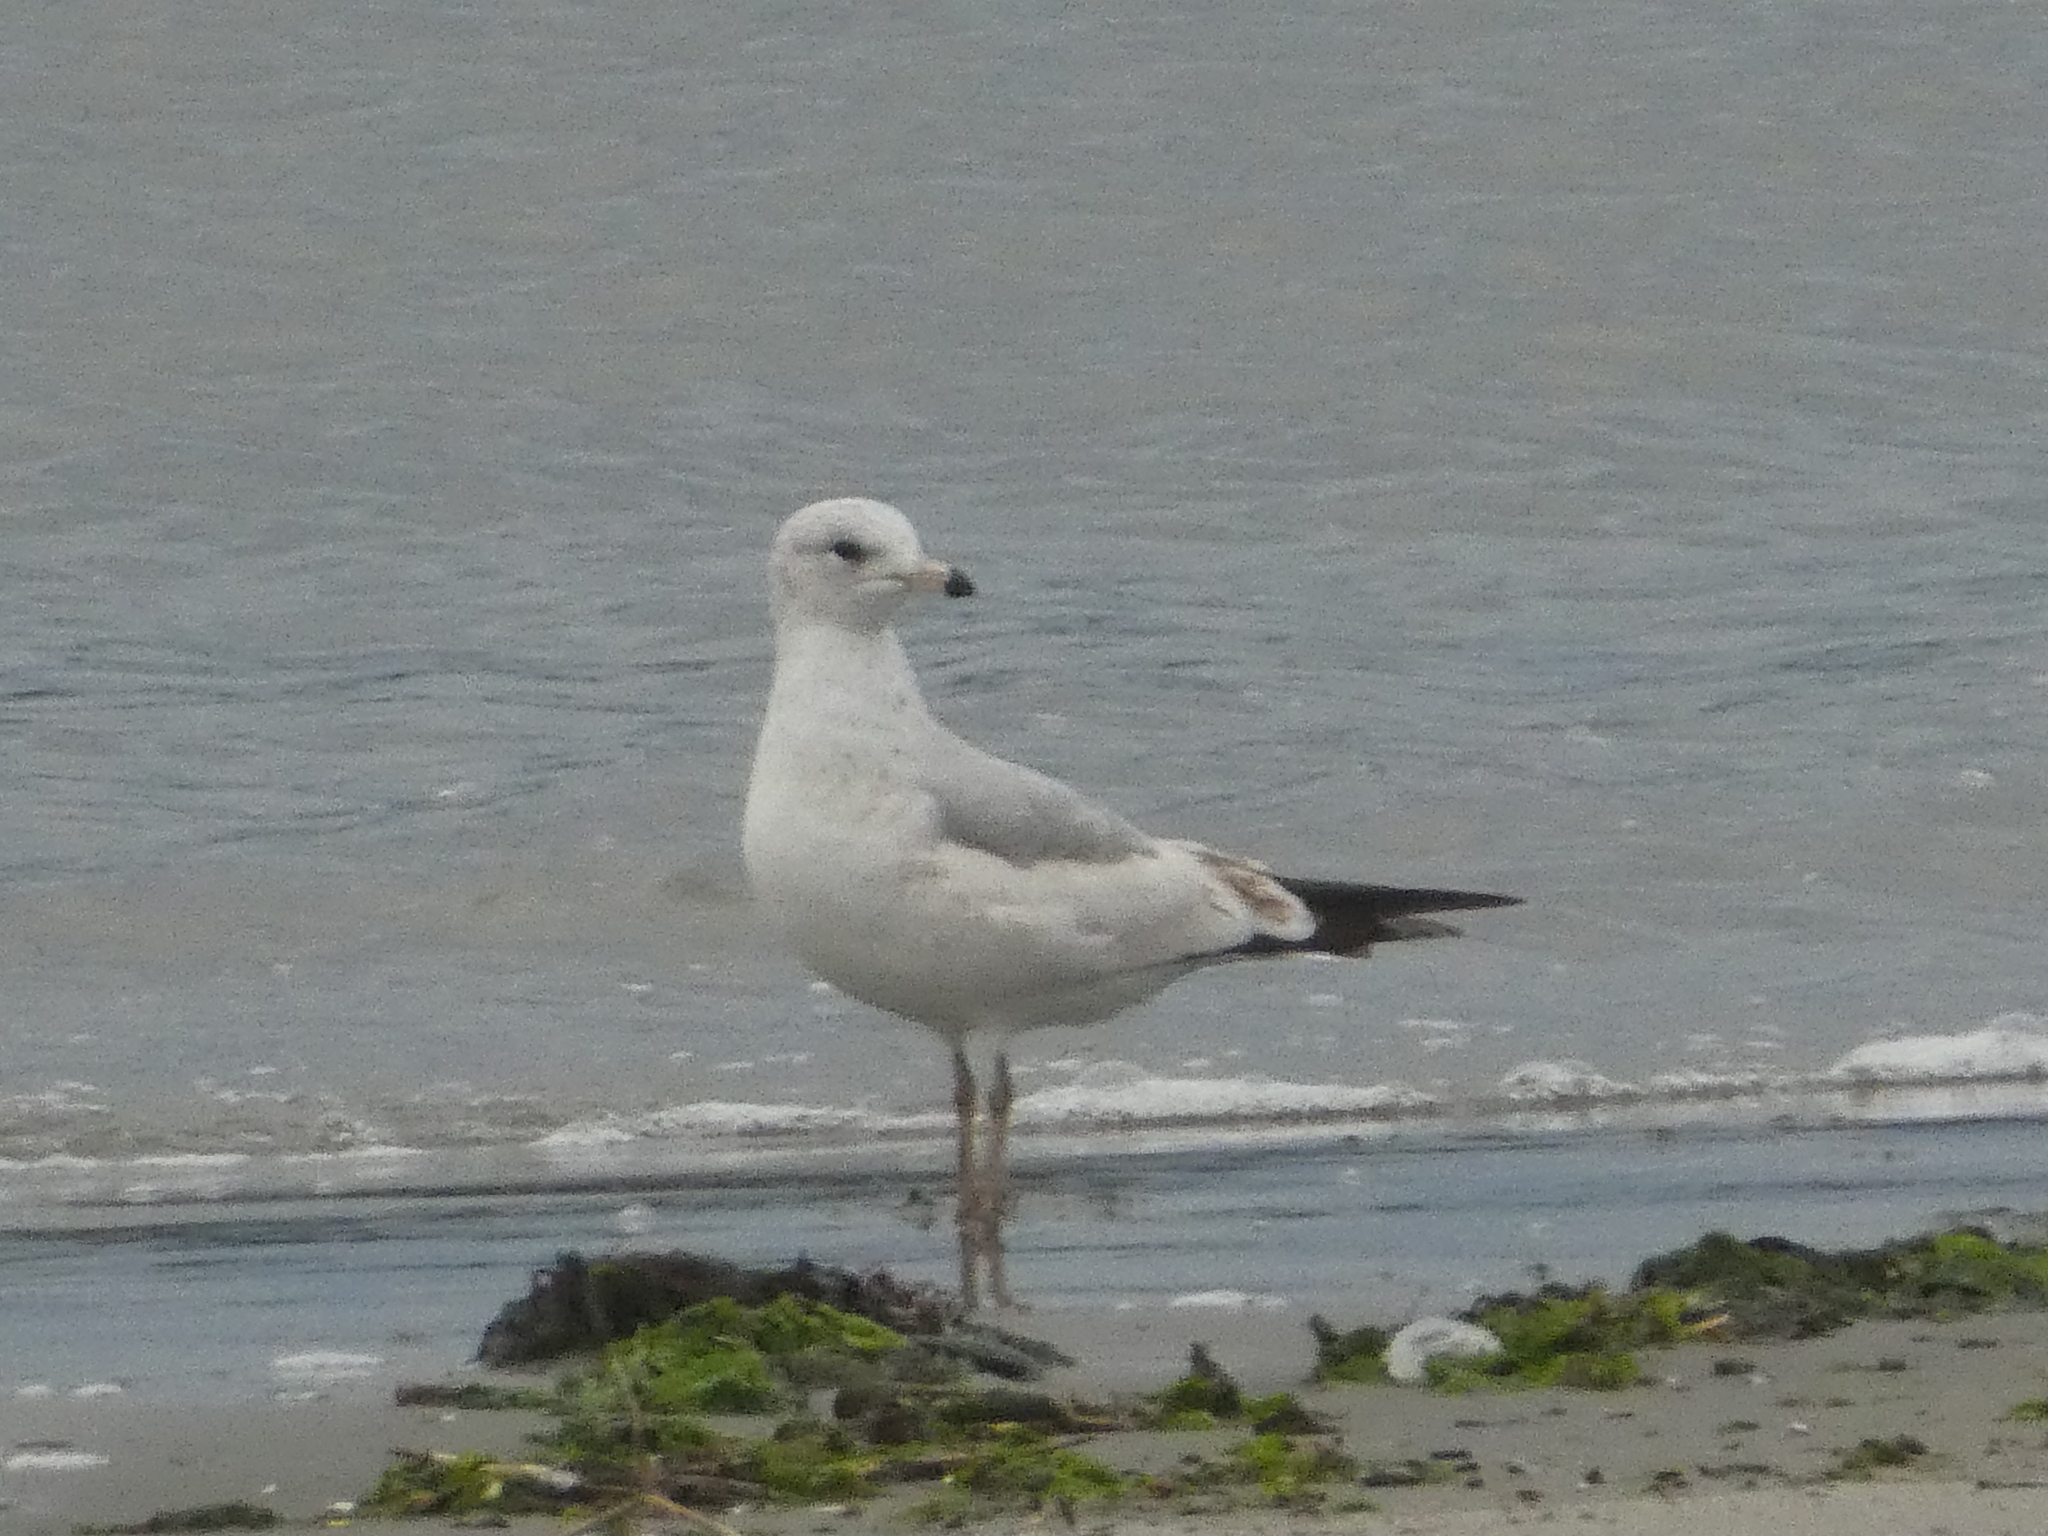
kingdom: Animalia
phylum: Chordata
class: Aves
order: Charadriiformes
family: Laridae
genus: Larus
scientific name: Larus delawarensis
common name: Ring-billed gull
